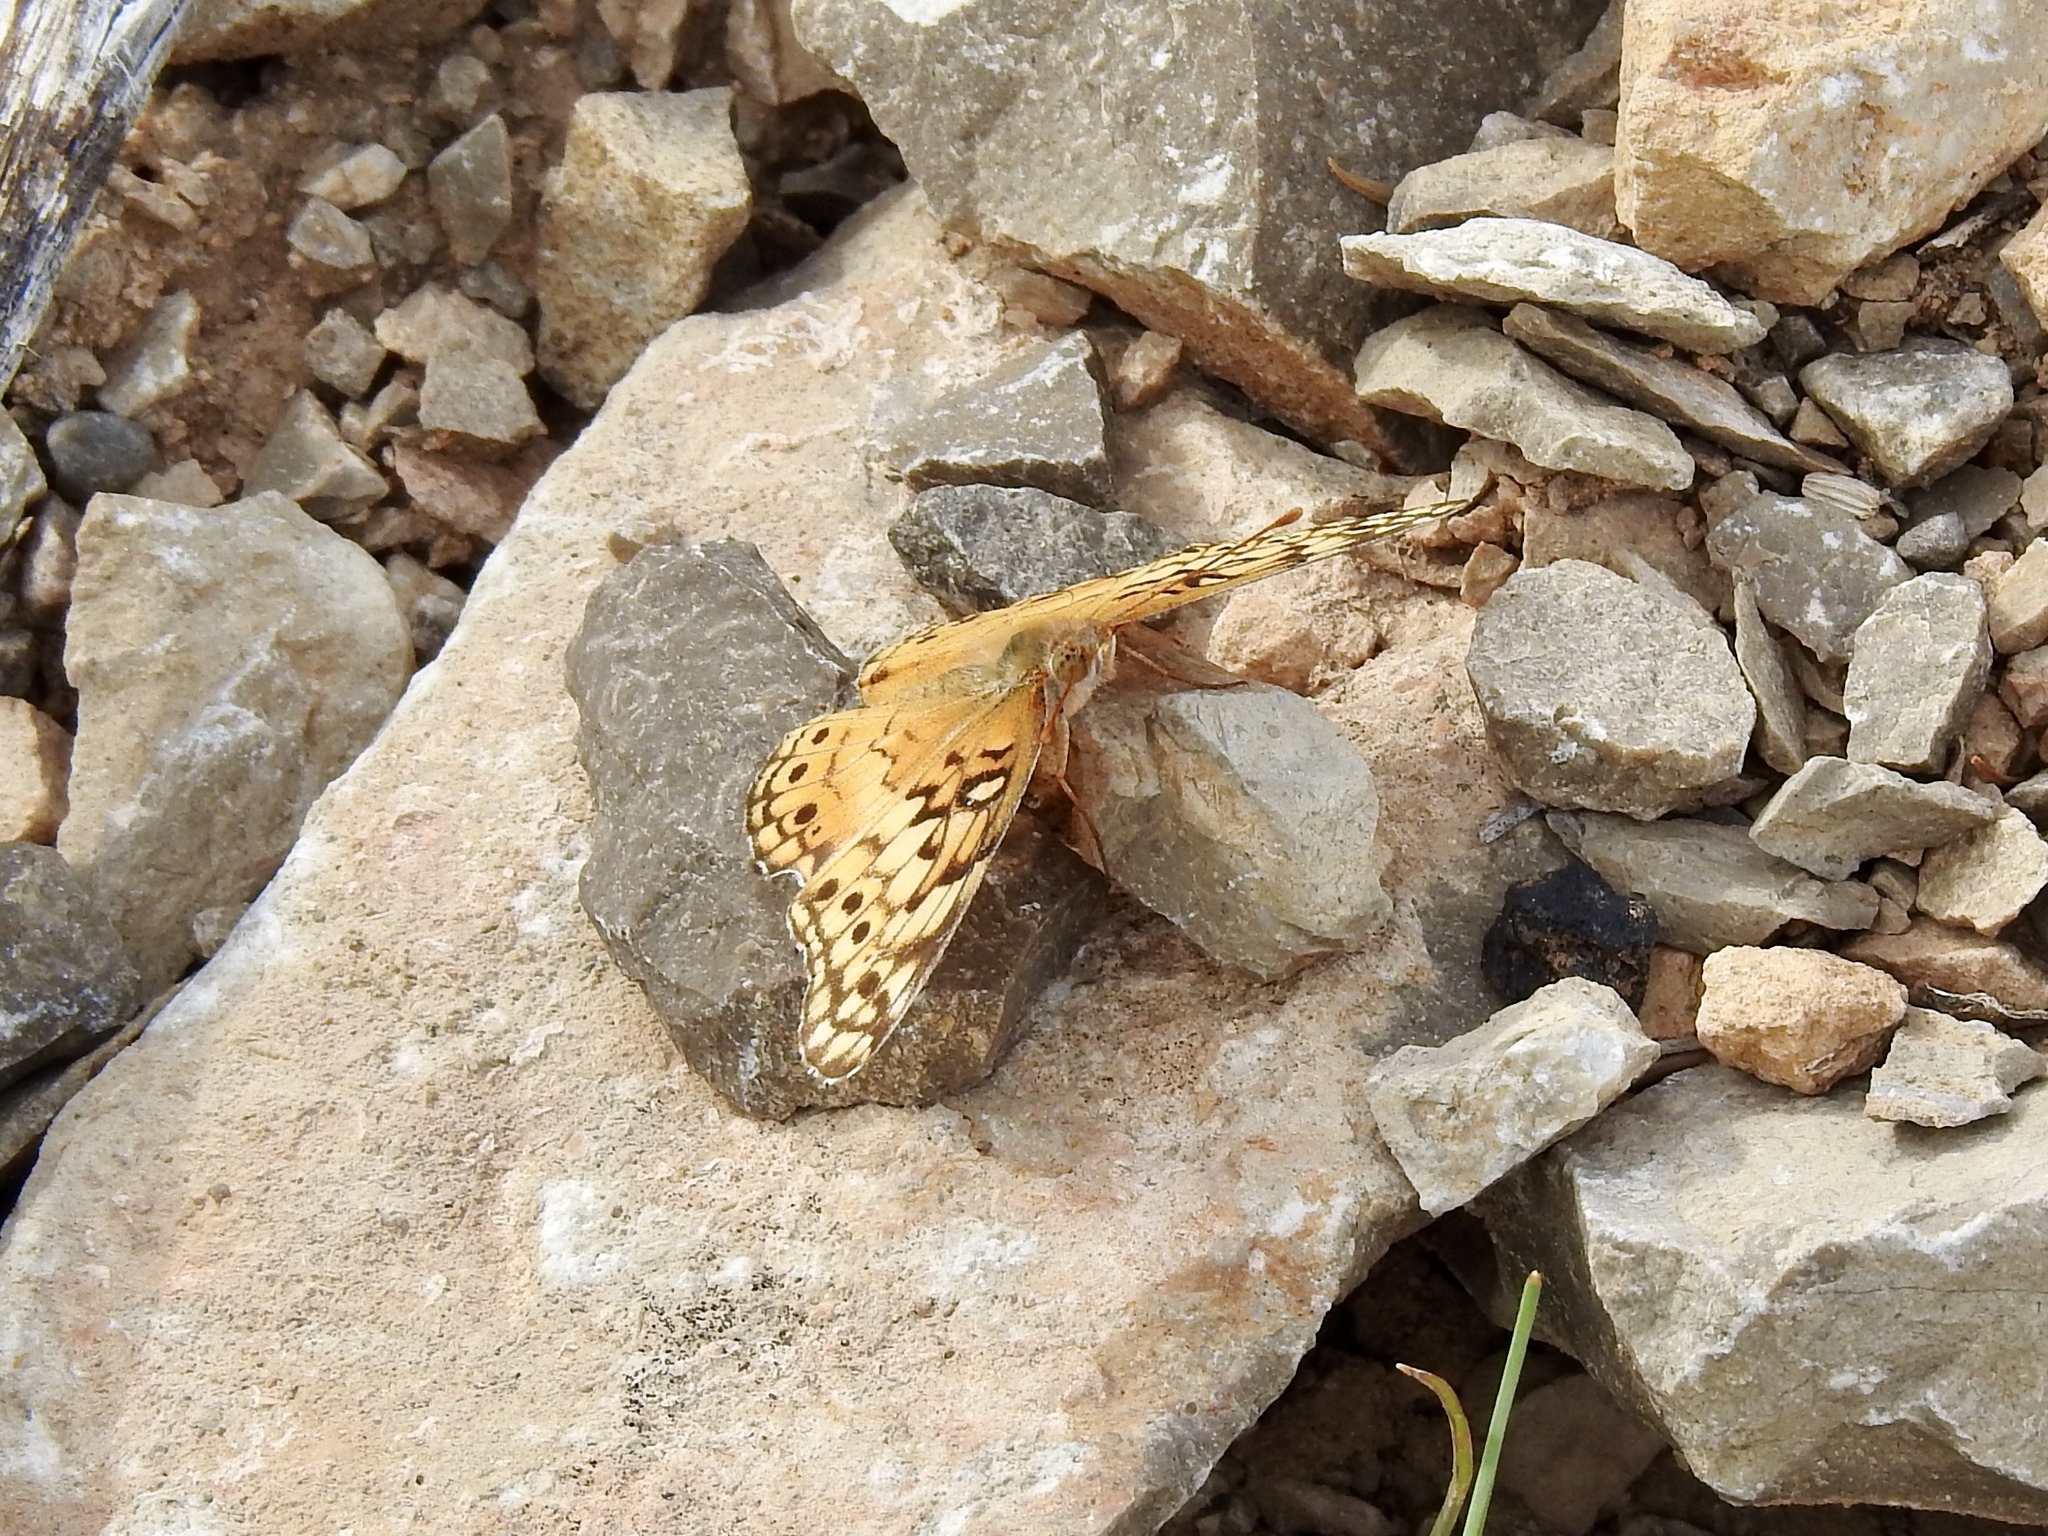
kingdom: Animalia
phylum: Arthropoda
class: Insecta
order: Lepidoptera
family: Nymphalidae
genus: Euptoieta
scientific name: Euptoieta claudia
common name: Variegated fritillary
